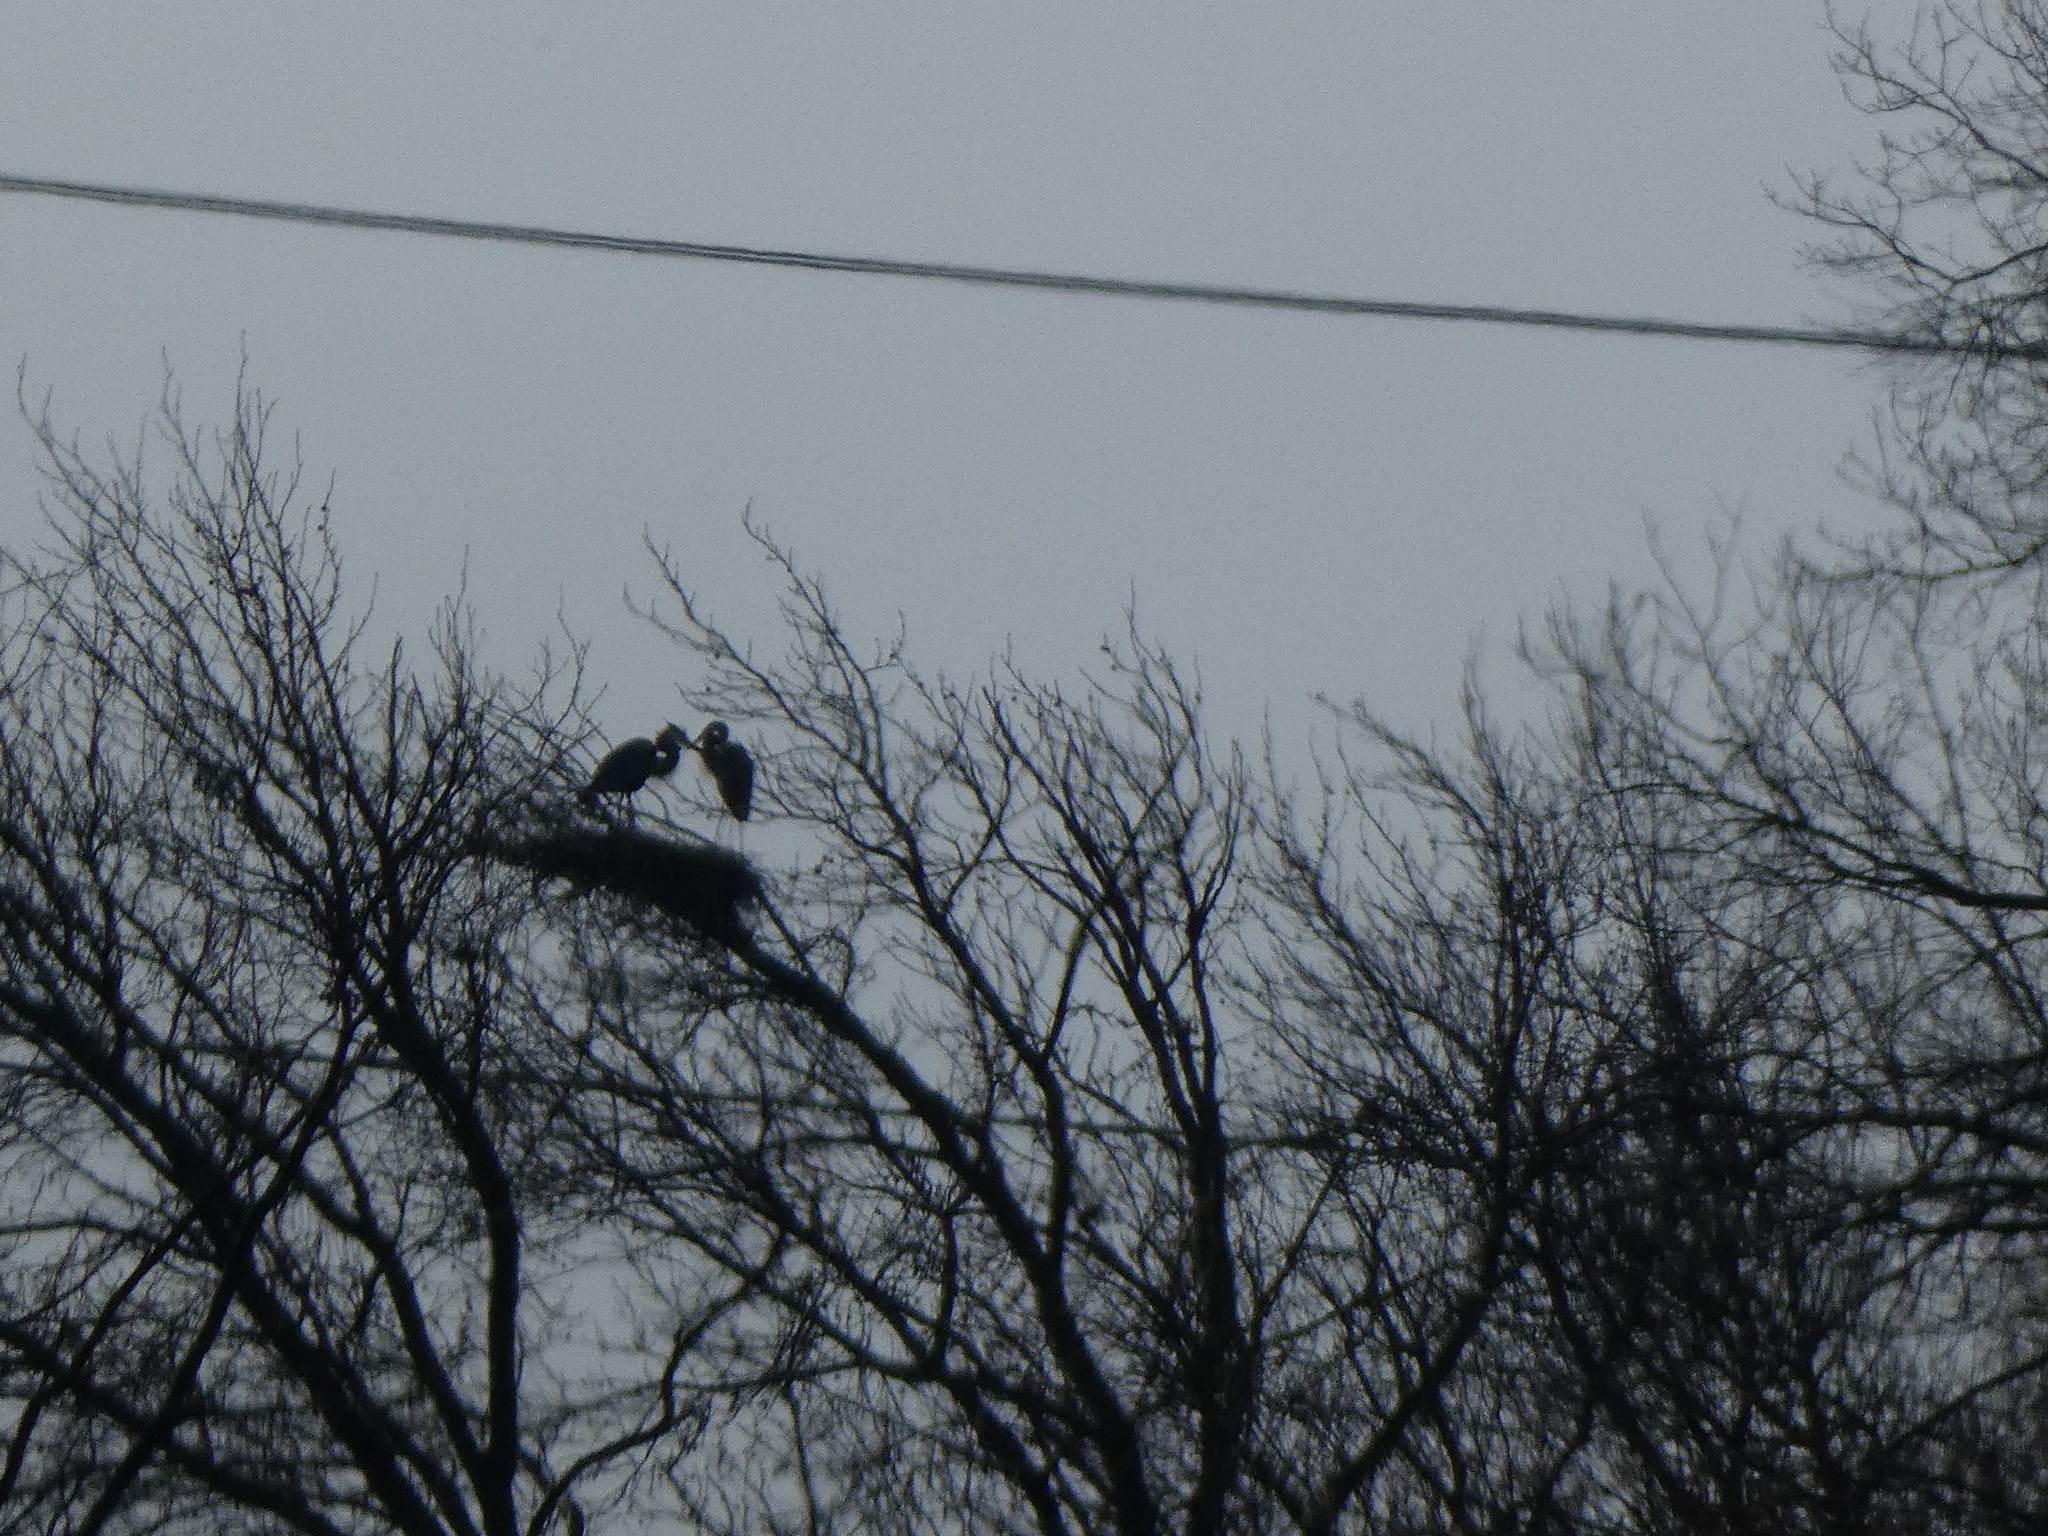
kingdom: Animalia
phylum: Chordata
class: Aves
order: Pelecaniformes
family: Ardeidae
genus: Ardea
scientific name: Ardea herodias
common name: Great blue heron
